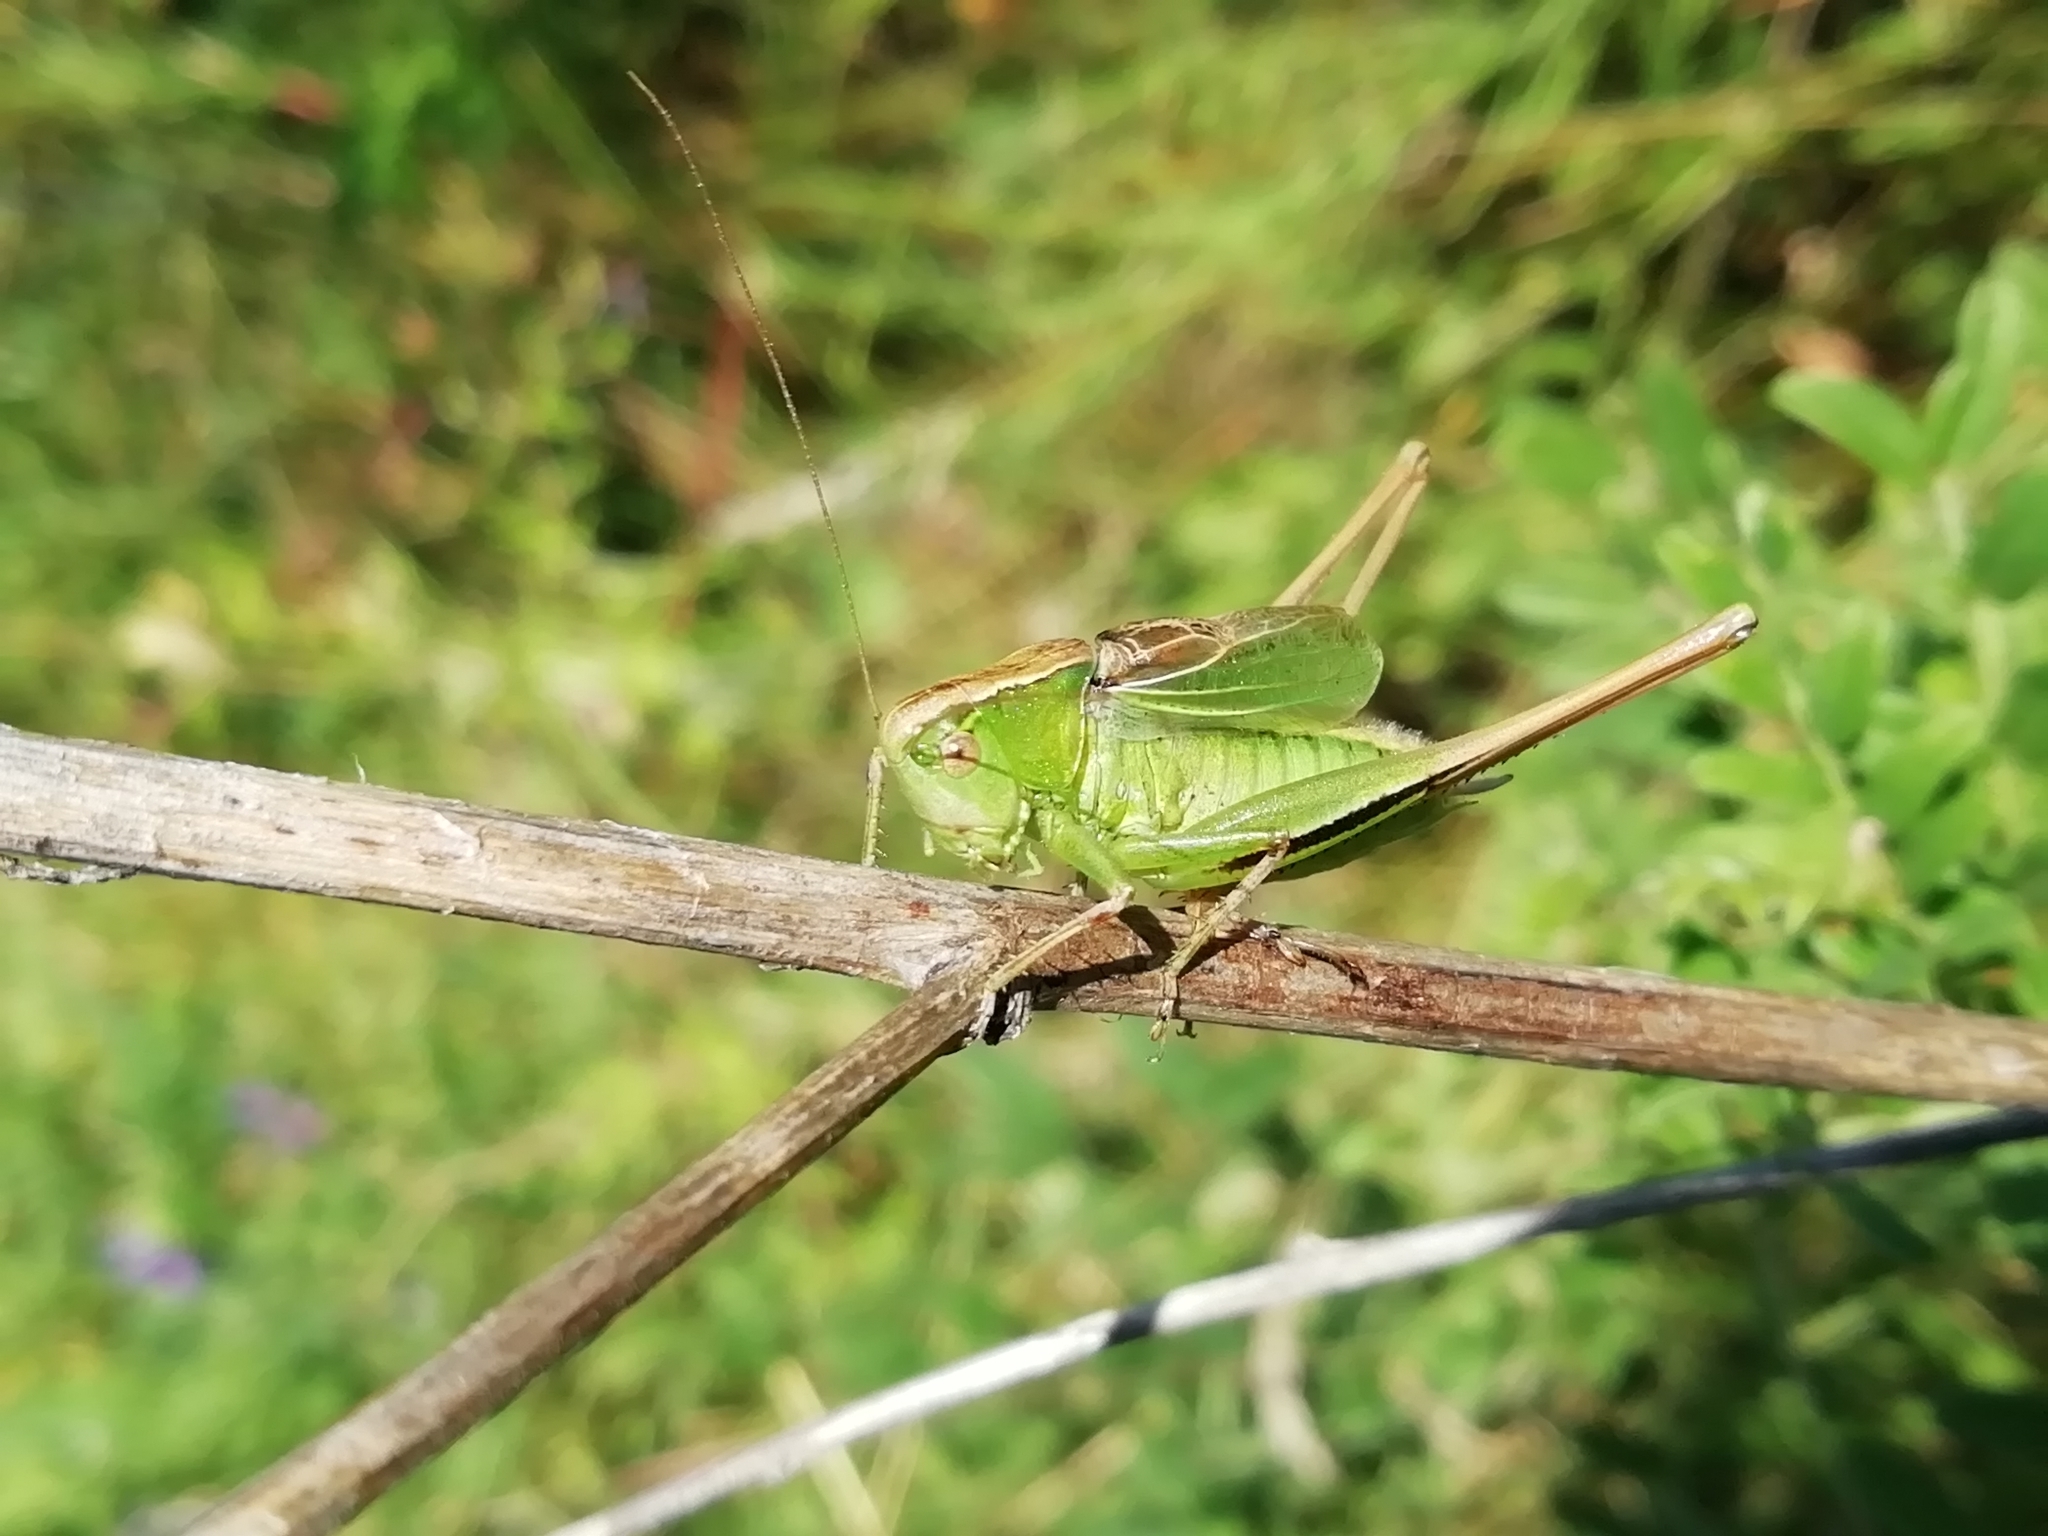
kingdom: Animalia
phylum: Arthropoda
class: Insecta
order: Orthoptera
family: Tettigoniidae
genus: Bicolorana
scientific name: Bicolorana bicolor
